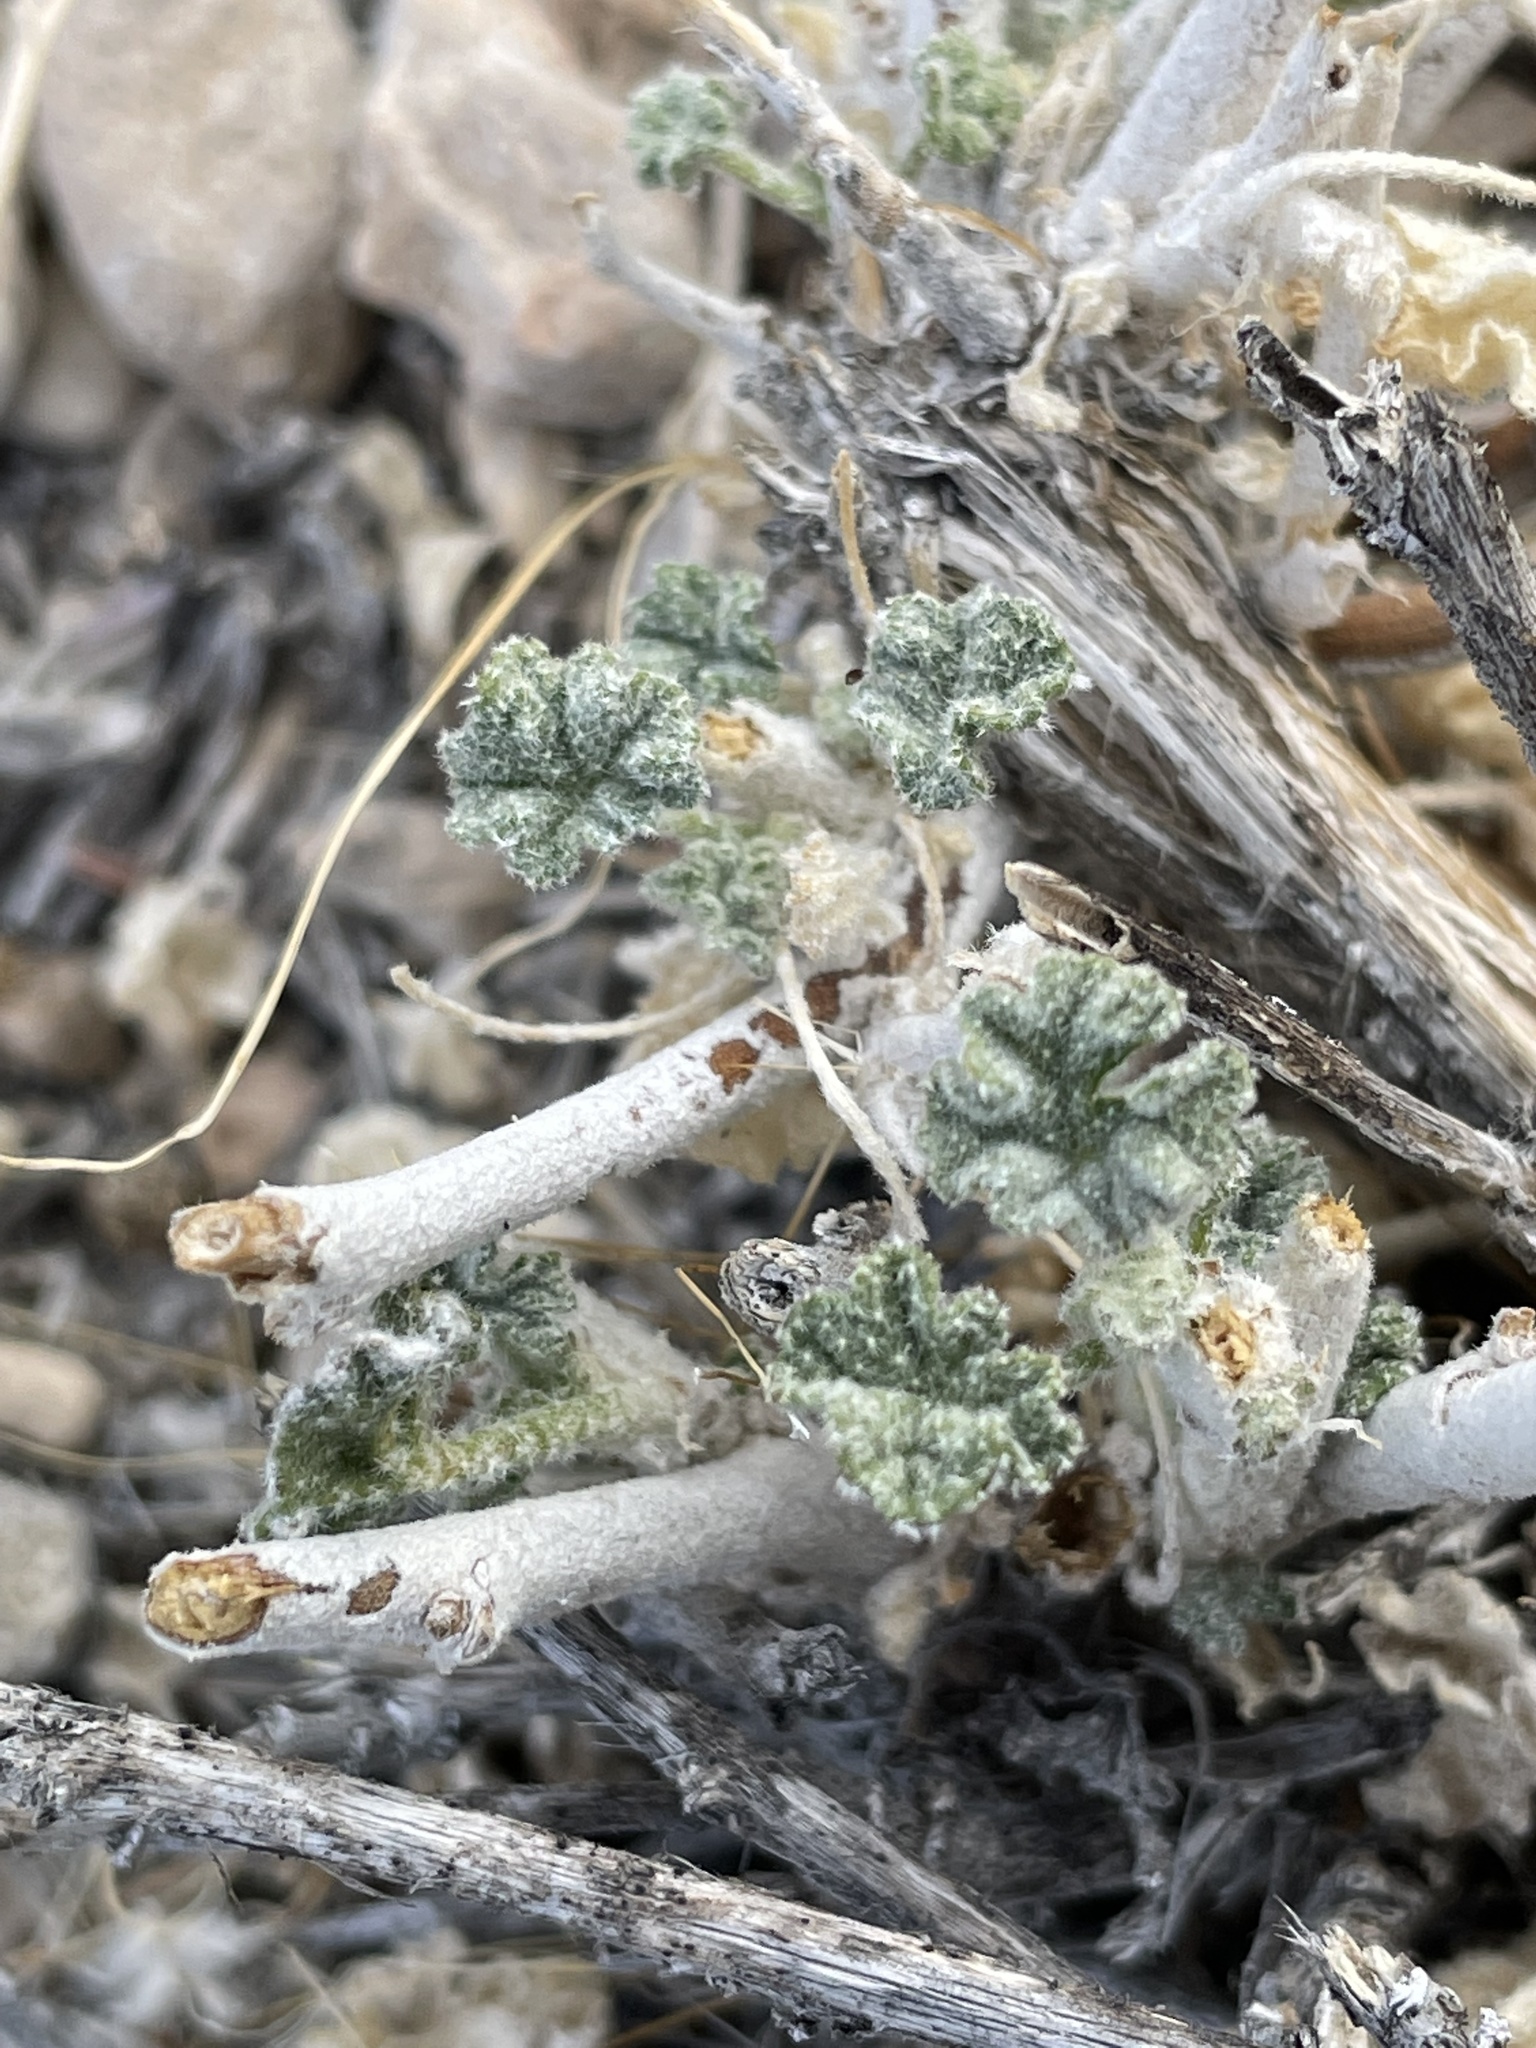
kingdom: Plantae
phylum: Tracheophyta
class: Magnoliopsida
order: Malvales
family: Malvaceae
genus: Sphaeralcea
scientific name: Sphaeralcea ambigua
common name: Apricot globe-mallow
